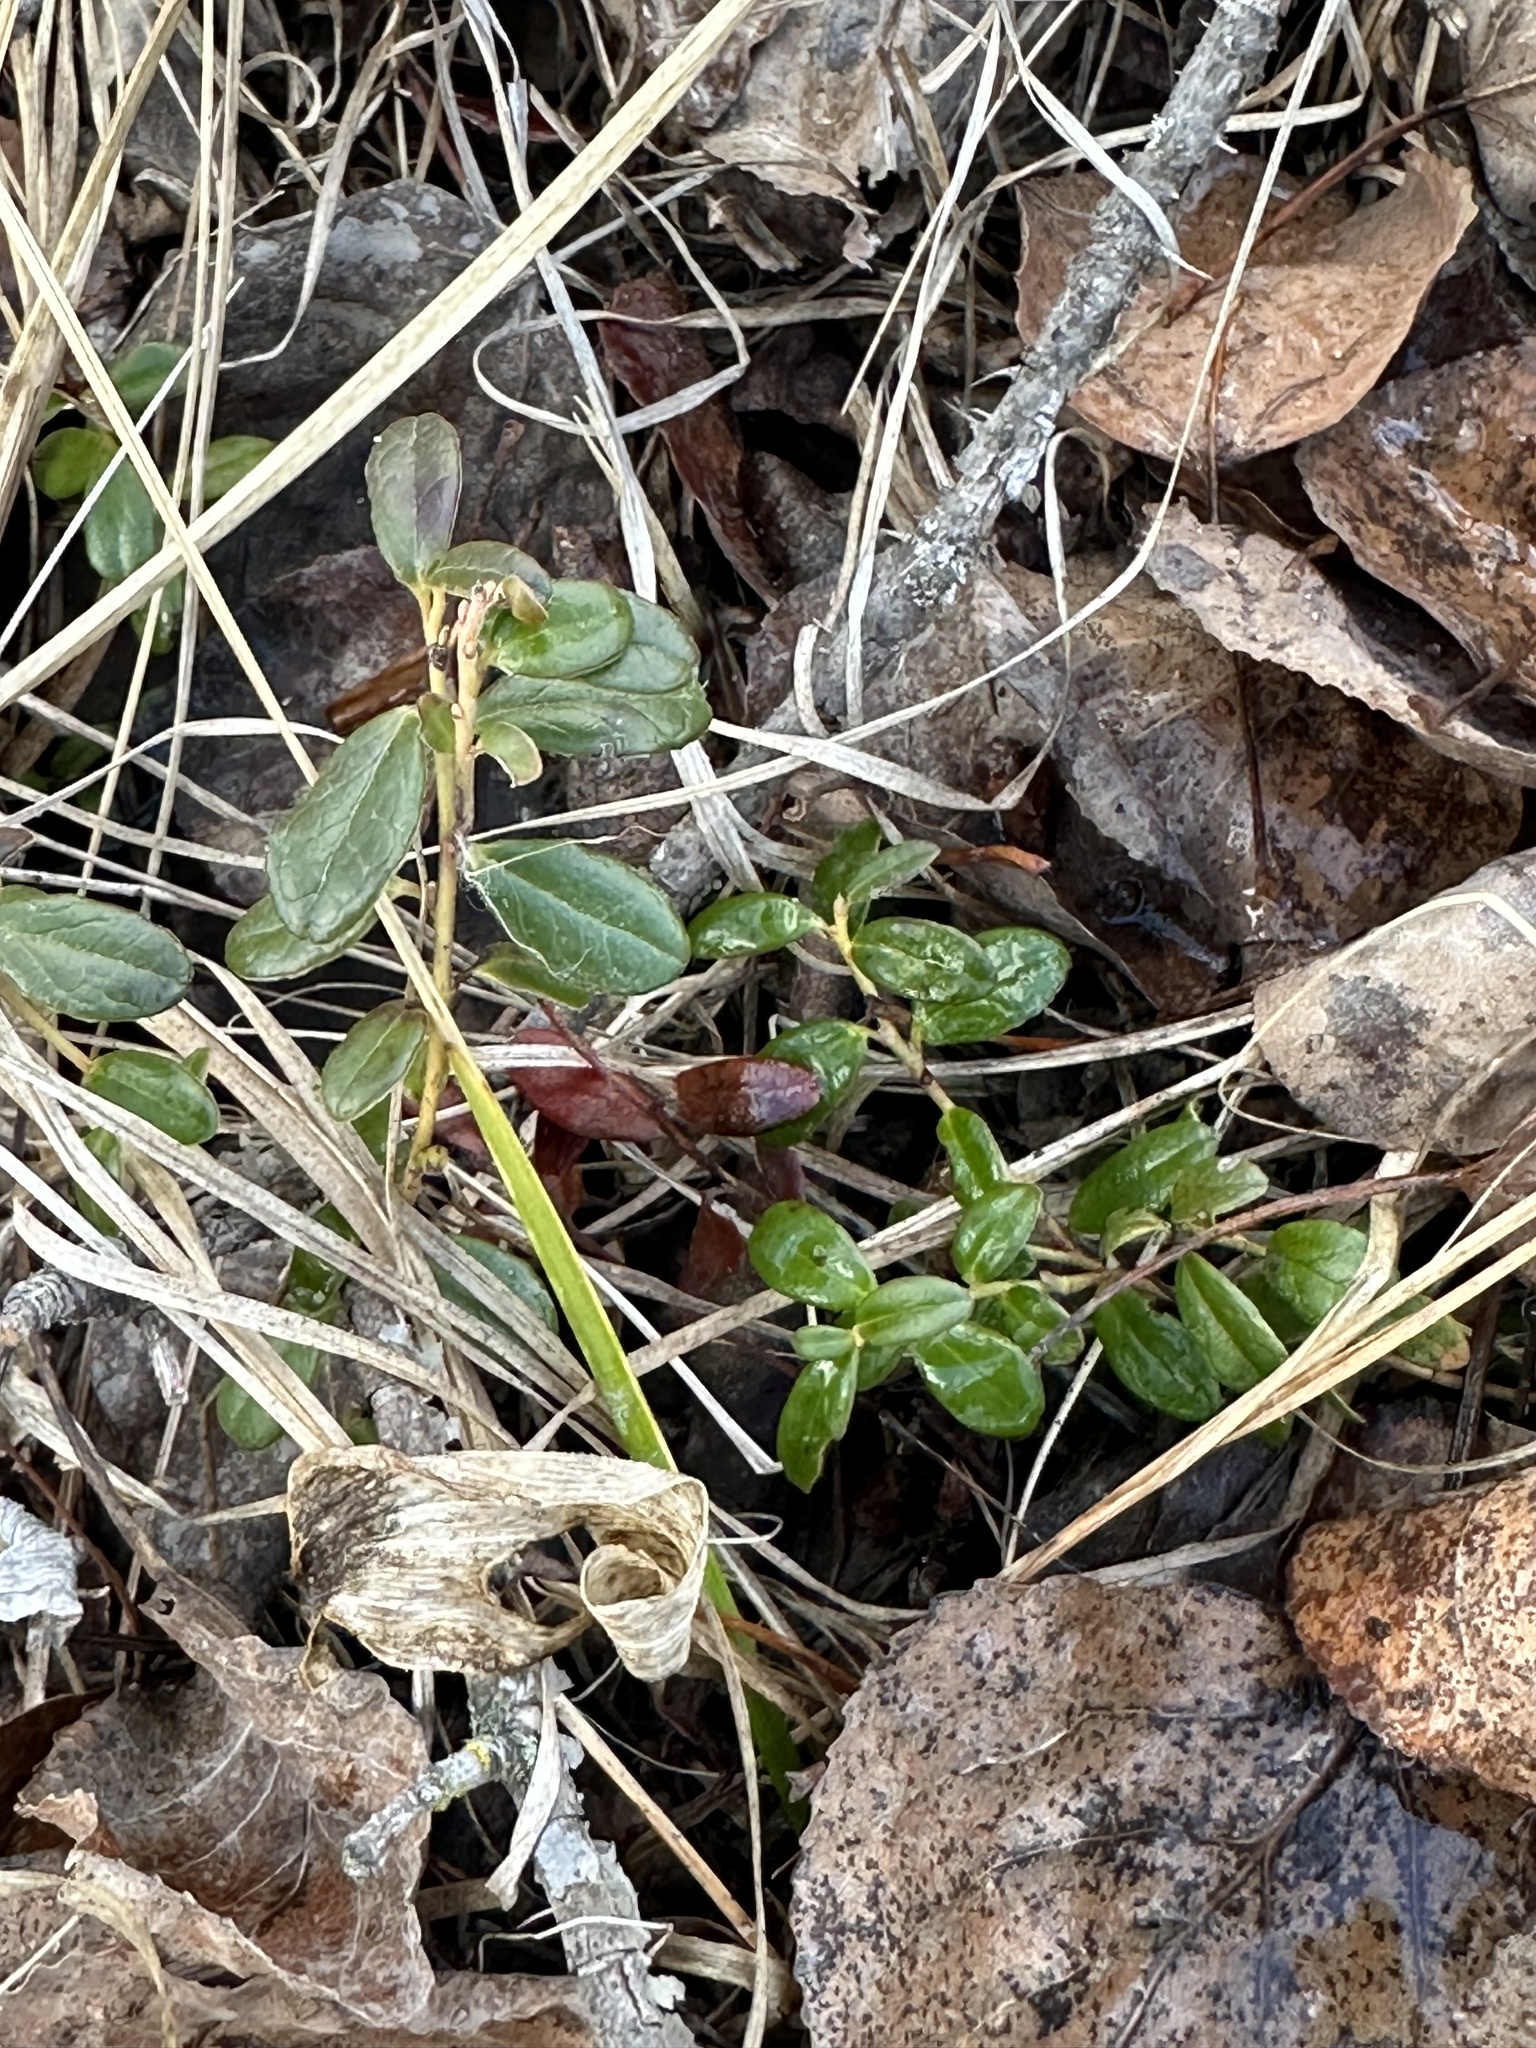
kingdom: Plantae
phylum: Tracheophyta
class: Magnoliopsida
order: Ericales
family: Ericaceae
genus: Vaccinium
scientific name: Vaccinium vitis-idaea
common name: Cowberry
